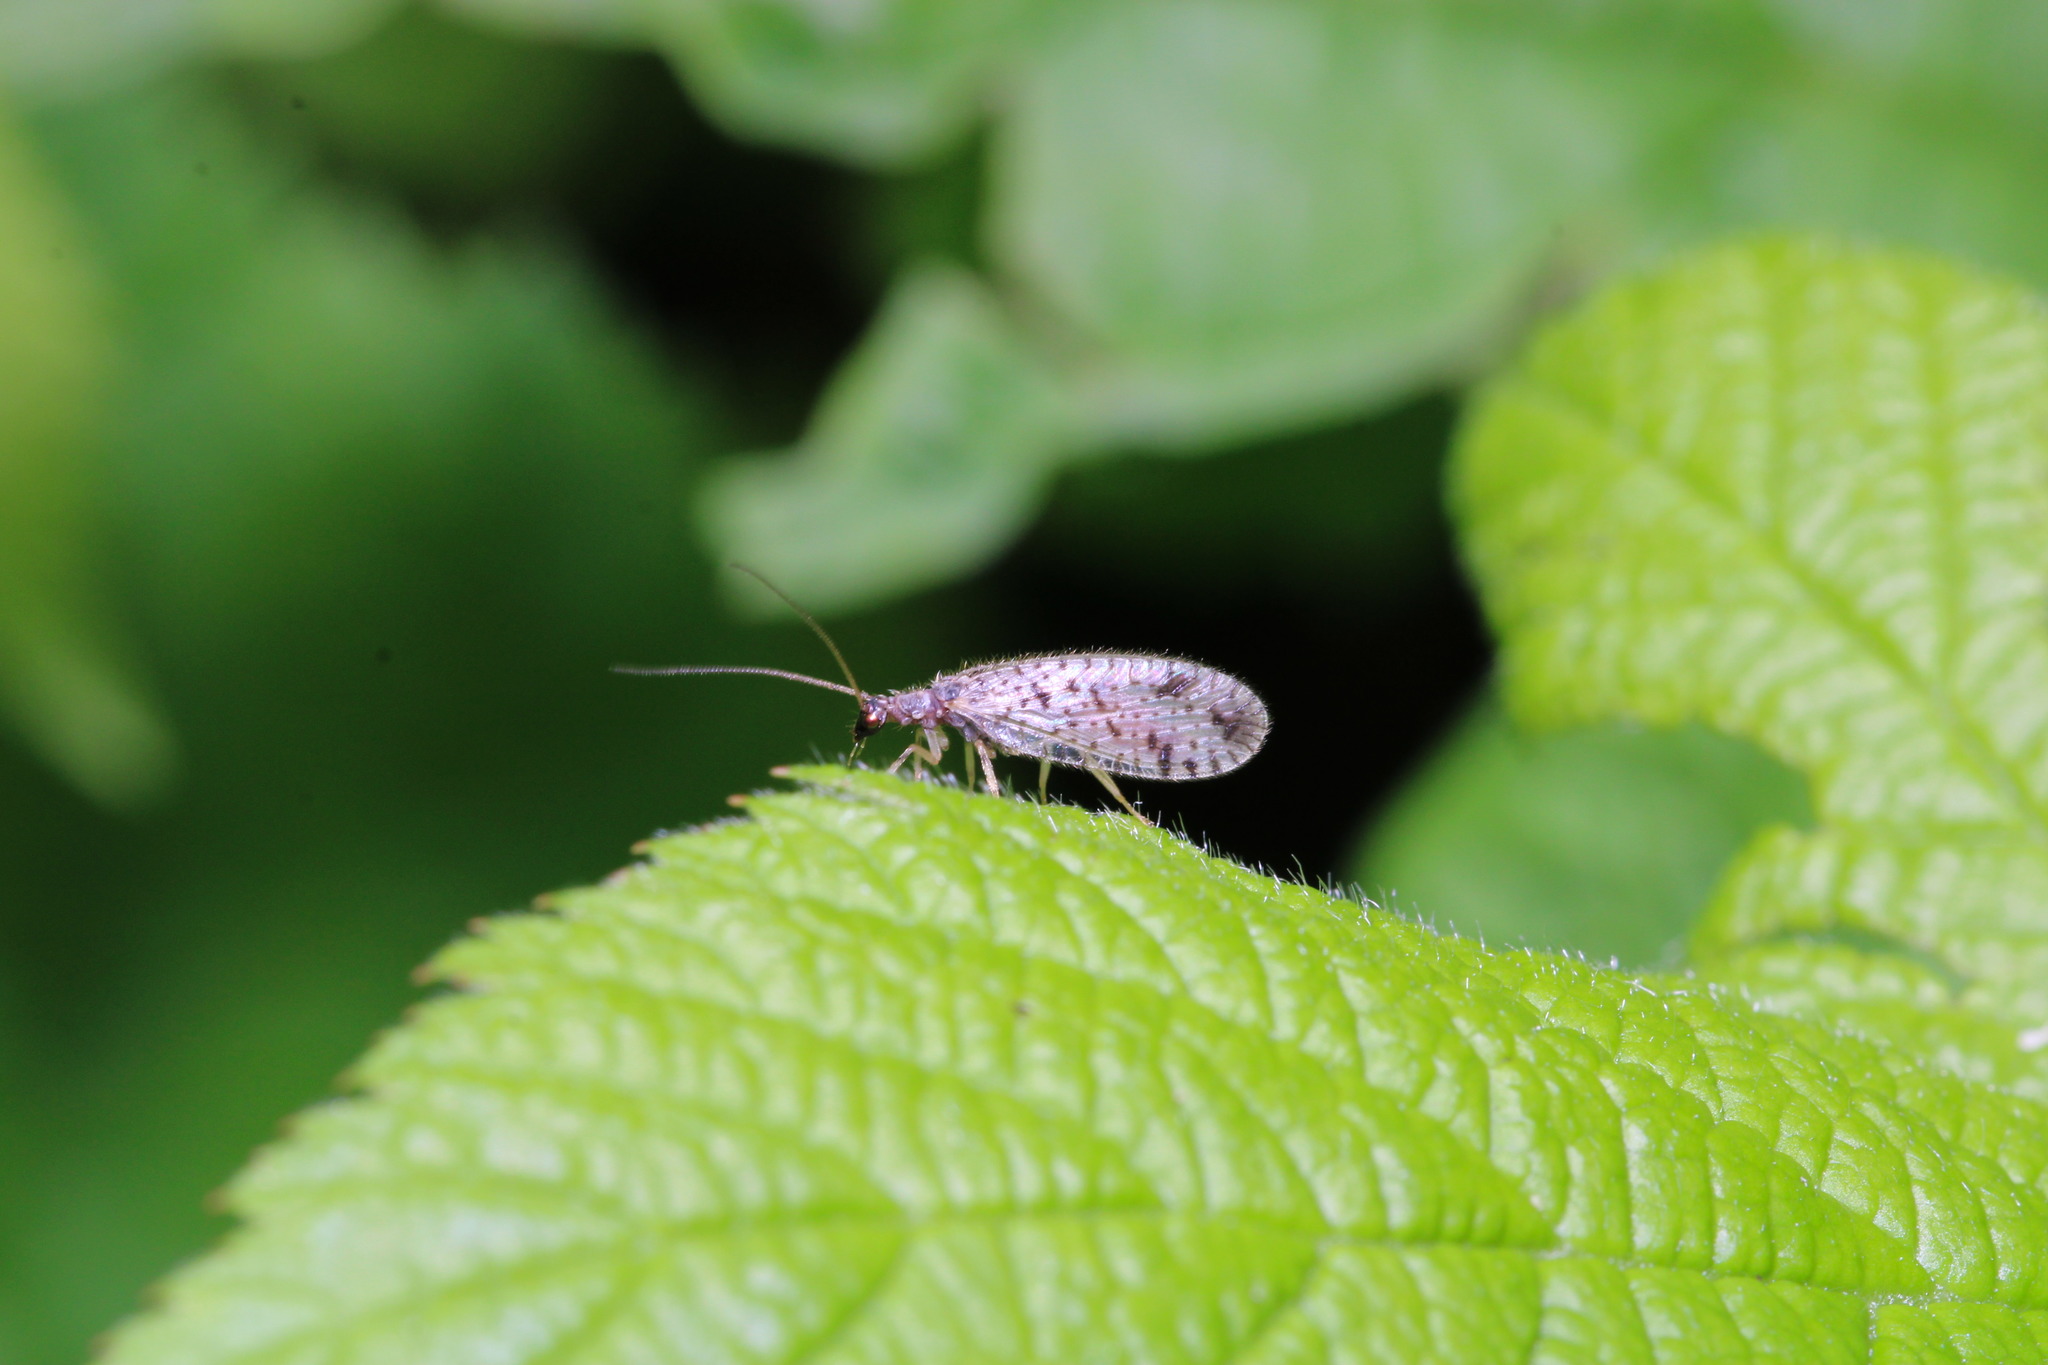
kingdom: Animalia
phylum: Arthropoda
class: Insecta
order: Neuroptera
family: Hemerobiidae
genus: Micromus
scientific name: Micromus variegatus
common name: Brown lacewing
